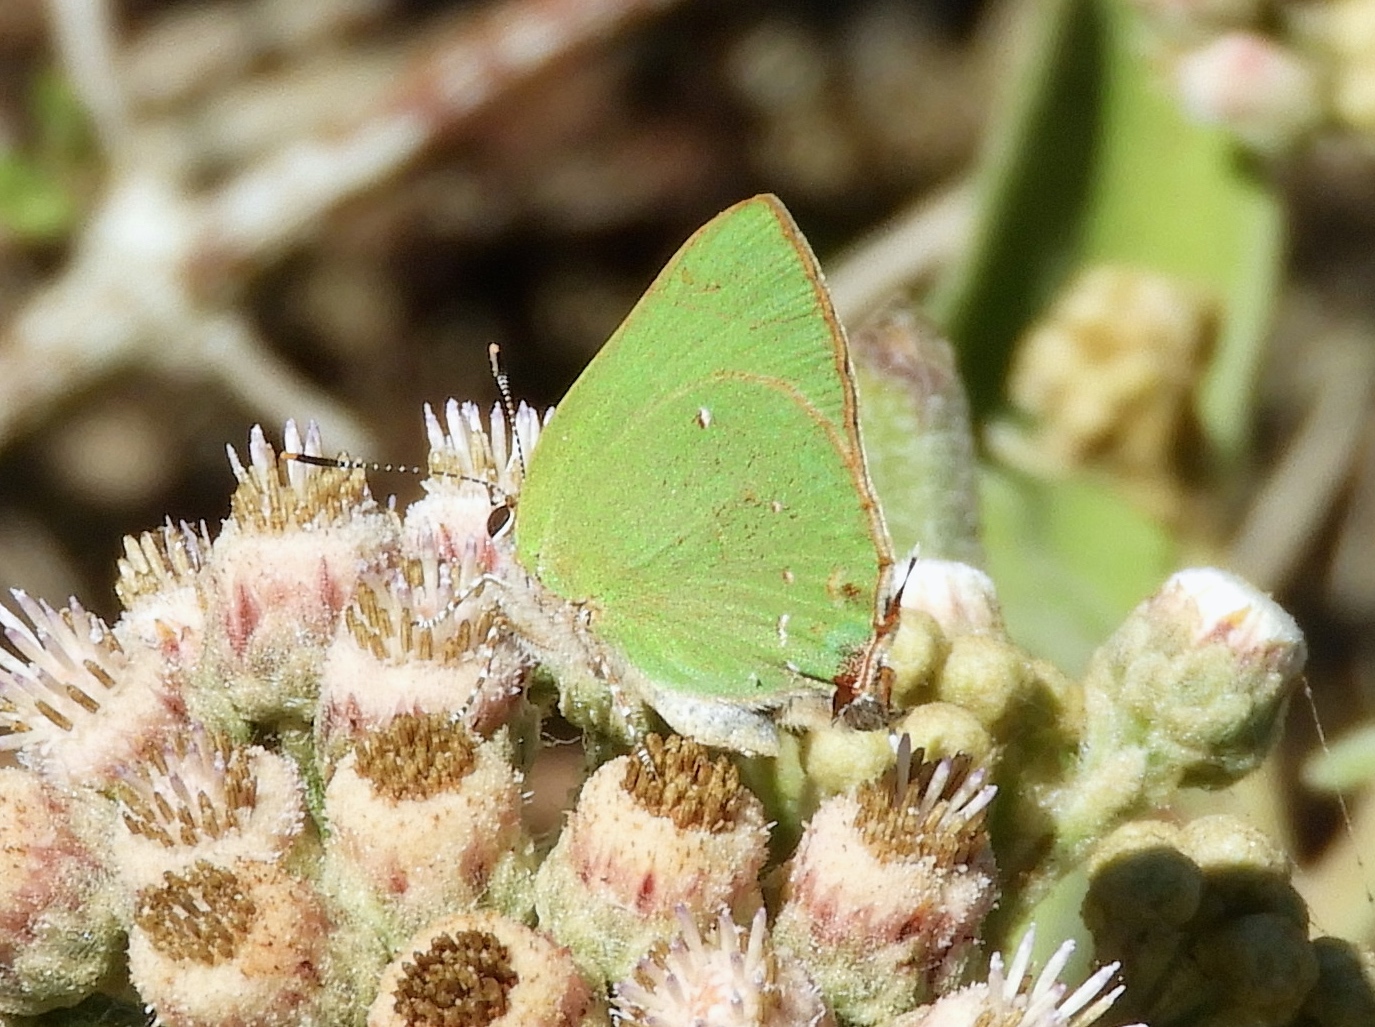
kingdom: Animalia
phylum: Arthropoda
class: Insecta
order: Lepidoptera
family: Lycaenidae
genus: Cyanophrys
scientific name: Cyanophrys
